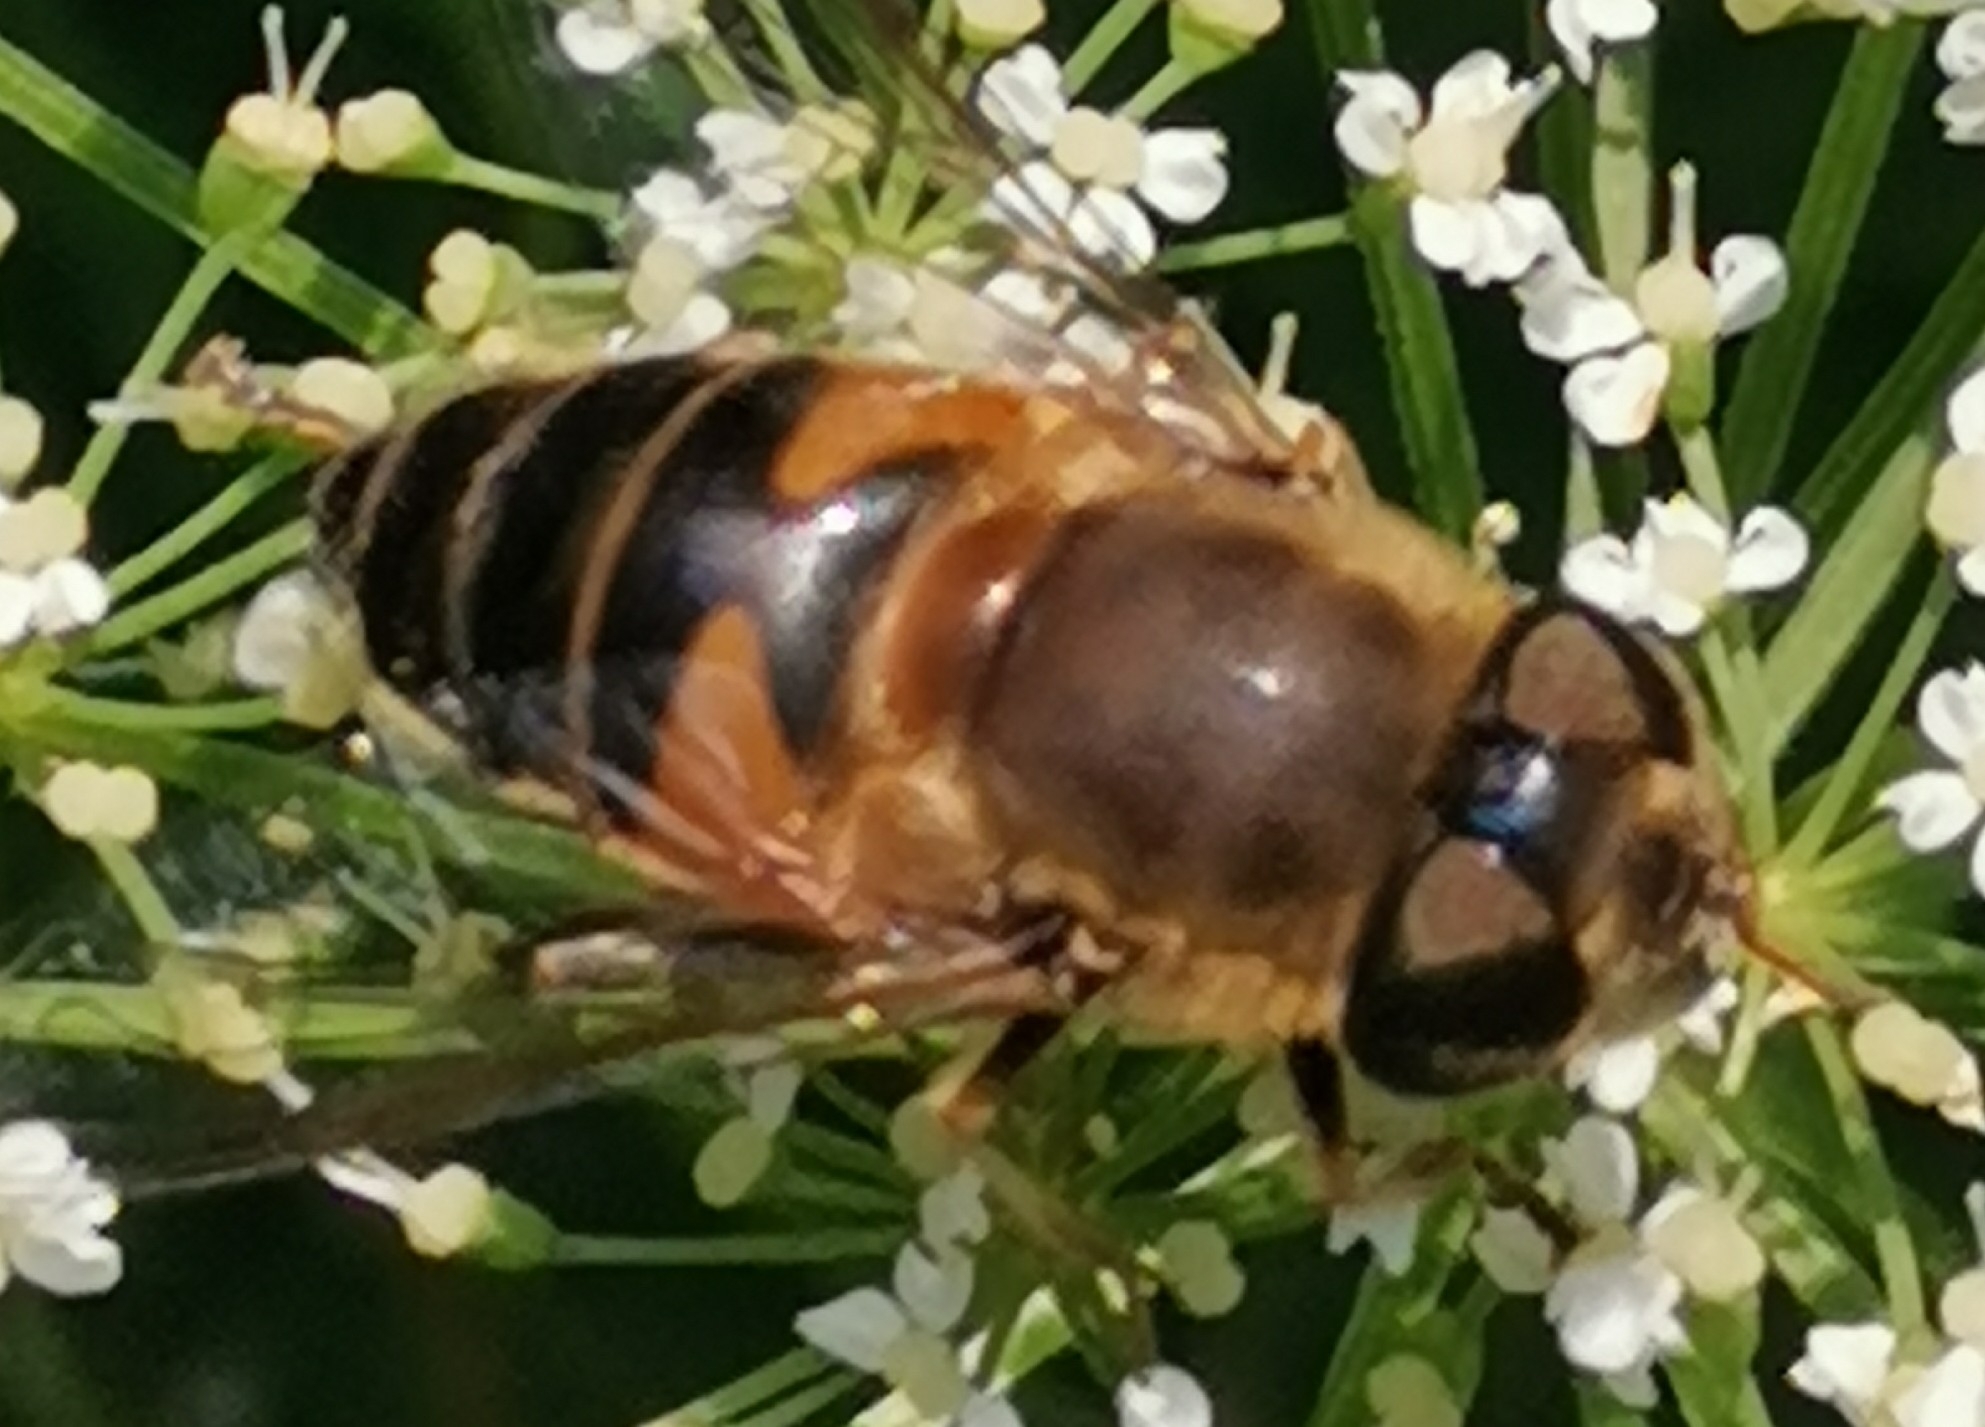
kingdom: Animalia
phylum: Arthropoda
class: Insecta
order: Diptera
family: Syrphidae
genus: Eristalis
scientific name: Eristalis pertinax
